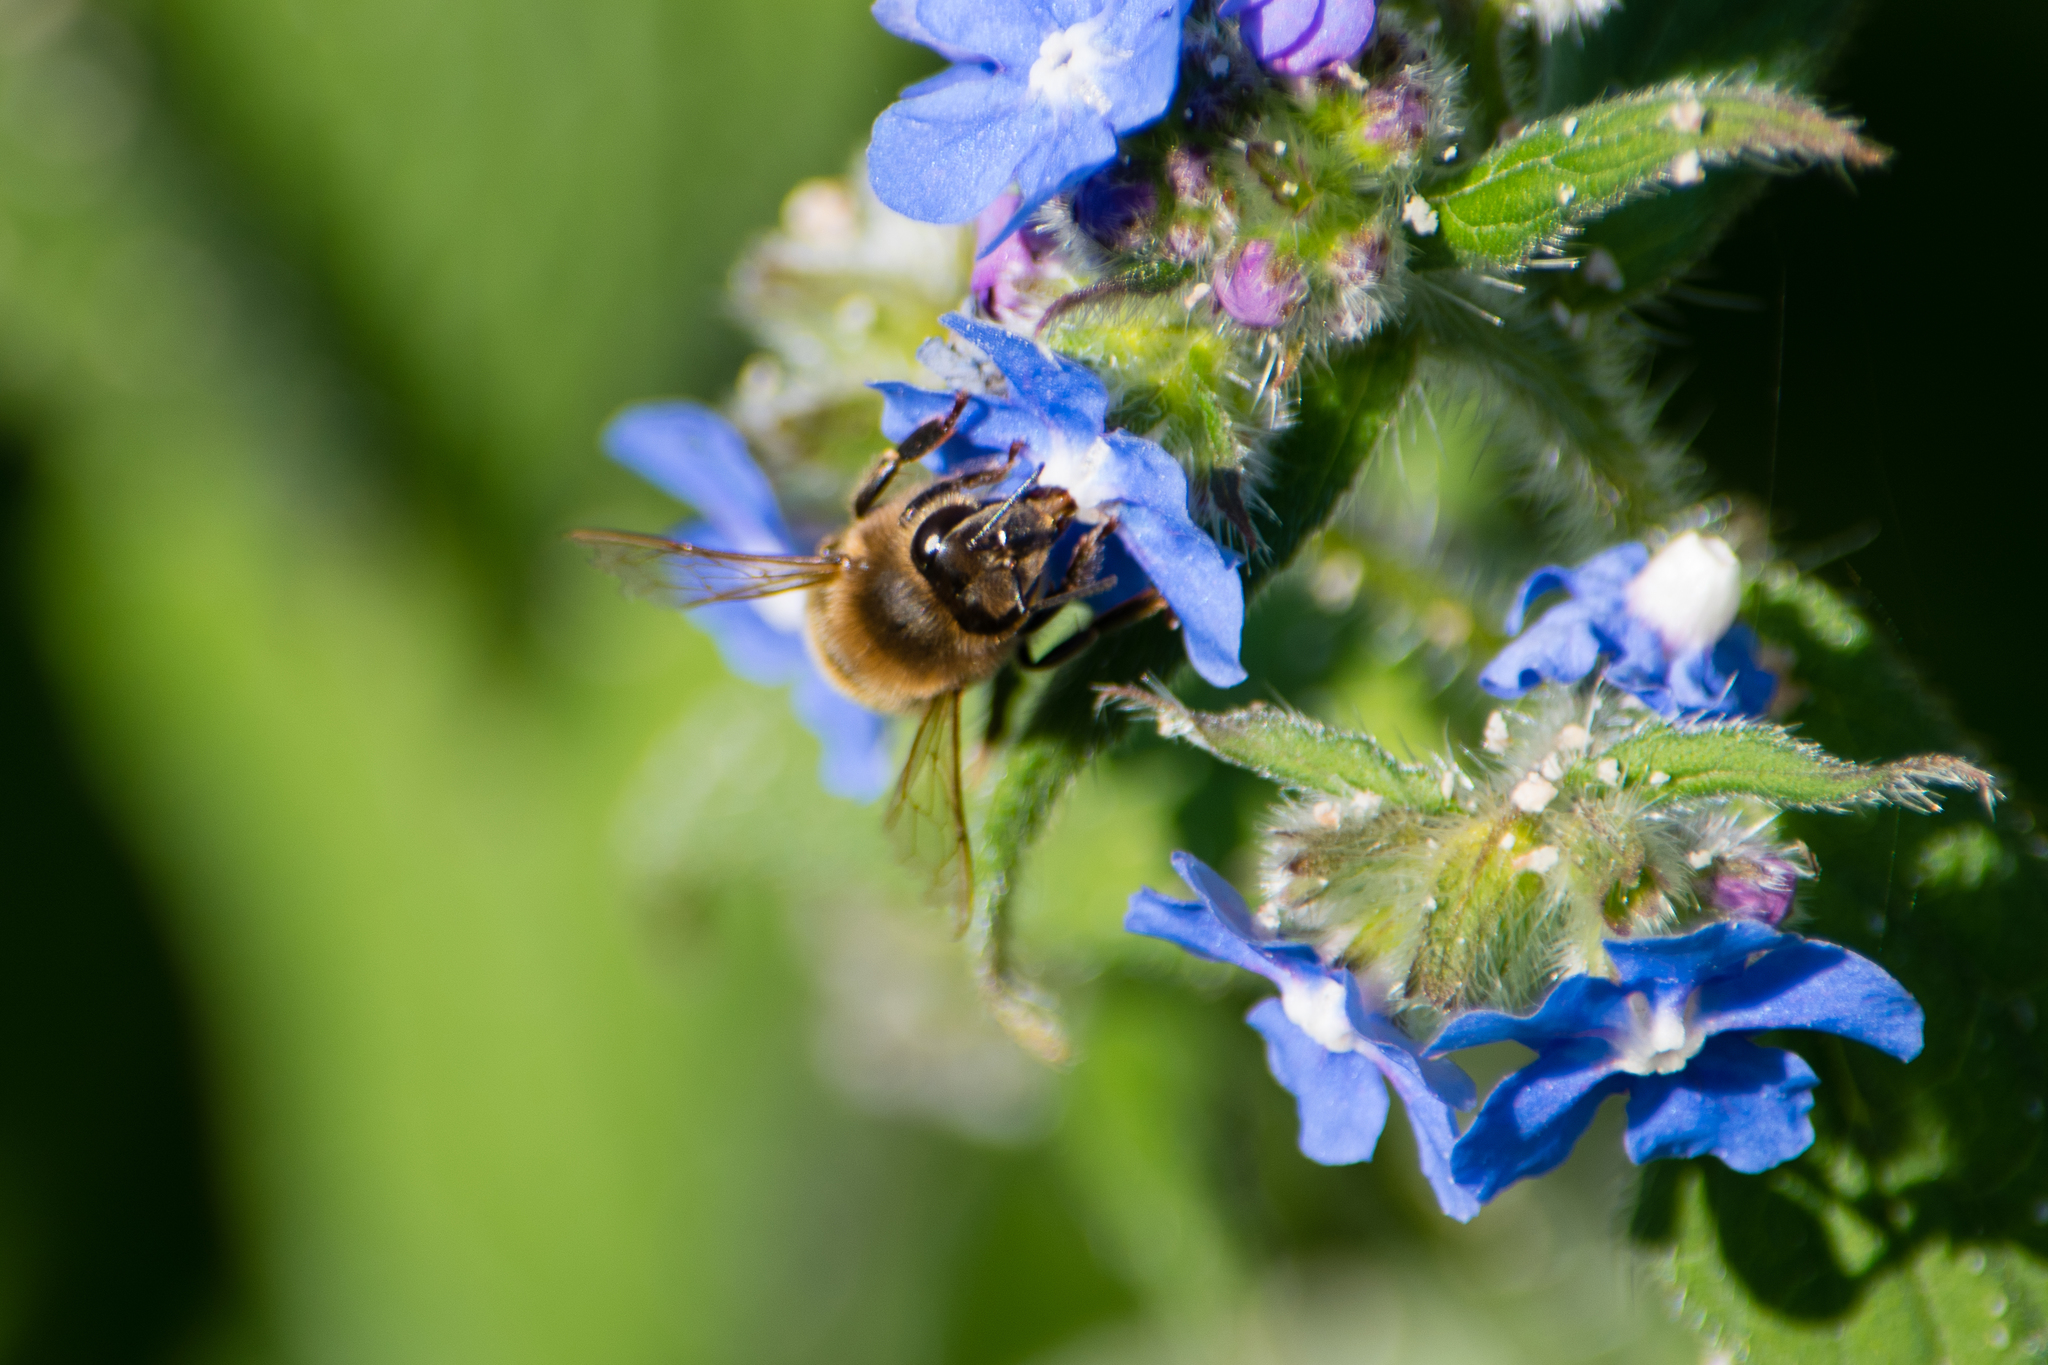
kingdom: Animalia
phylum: Arthropoda
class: Insecta
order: Hymenoptera
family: Apidae
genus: Apis
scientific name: Apis mellifera
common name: Honey bee
